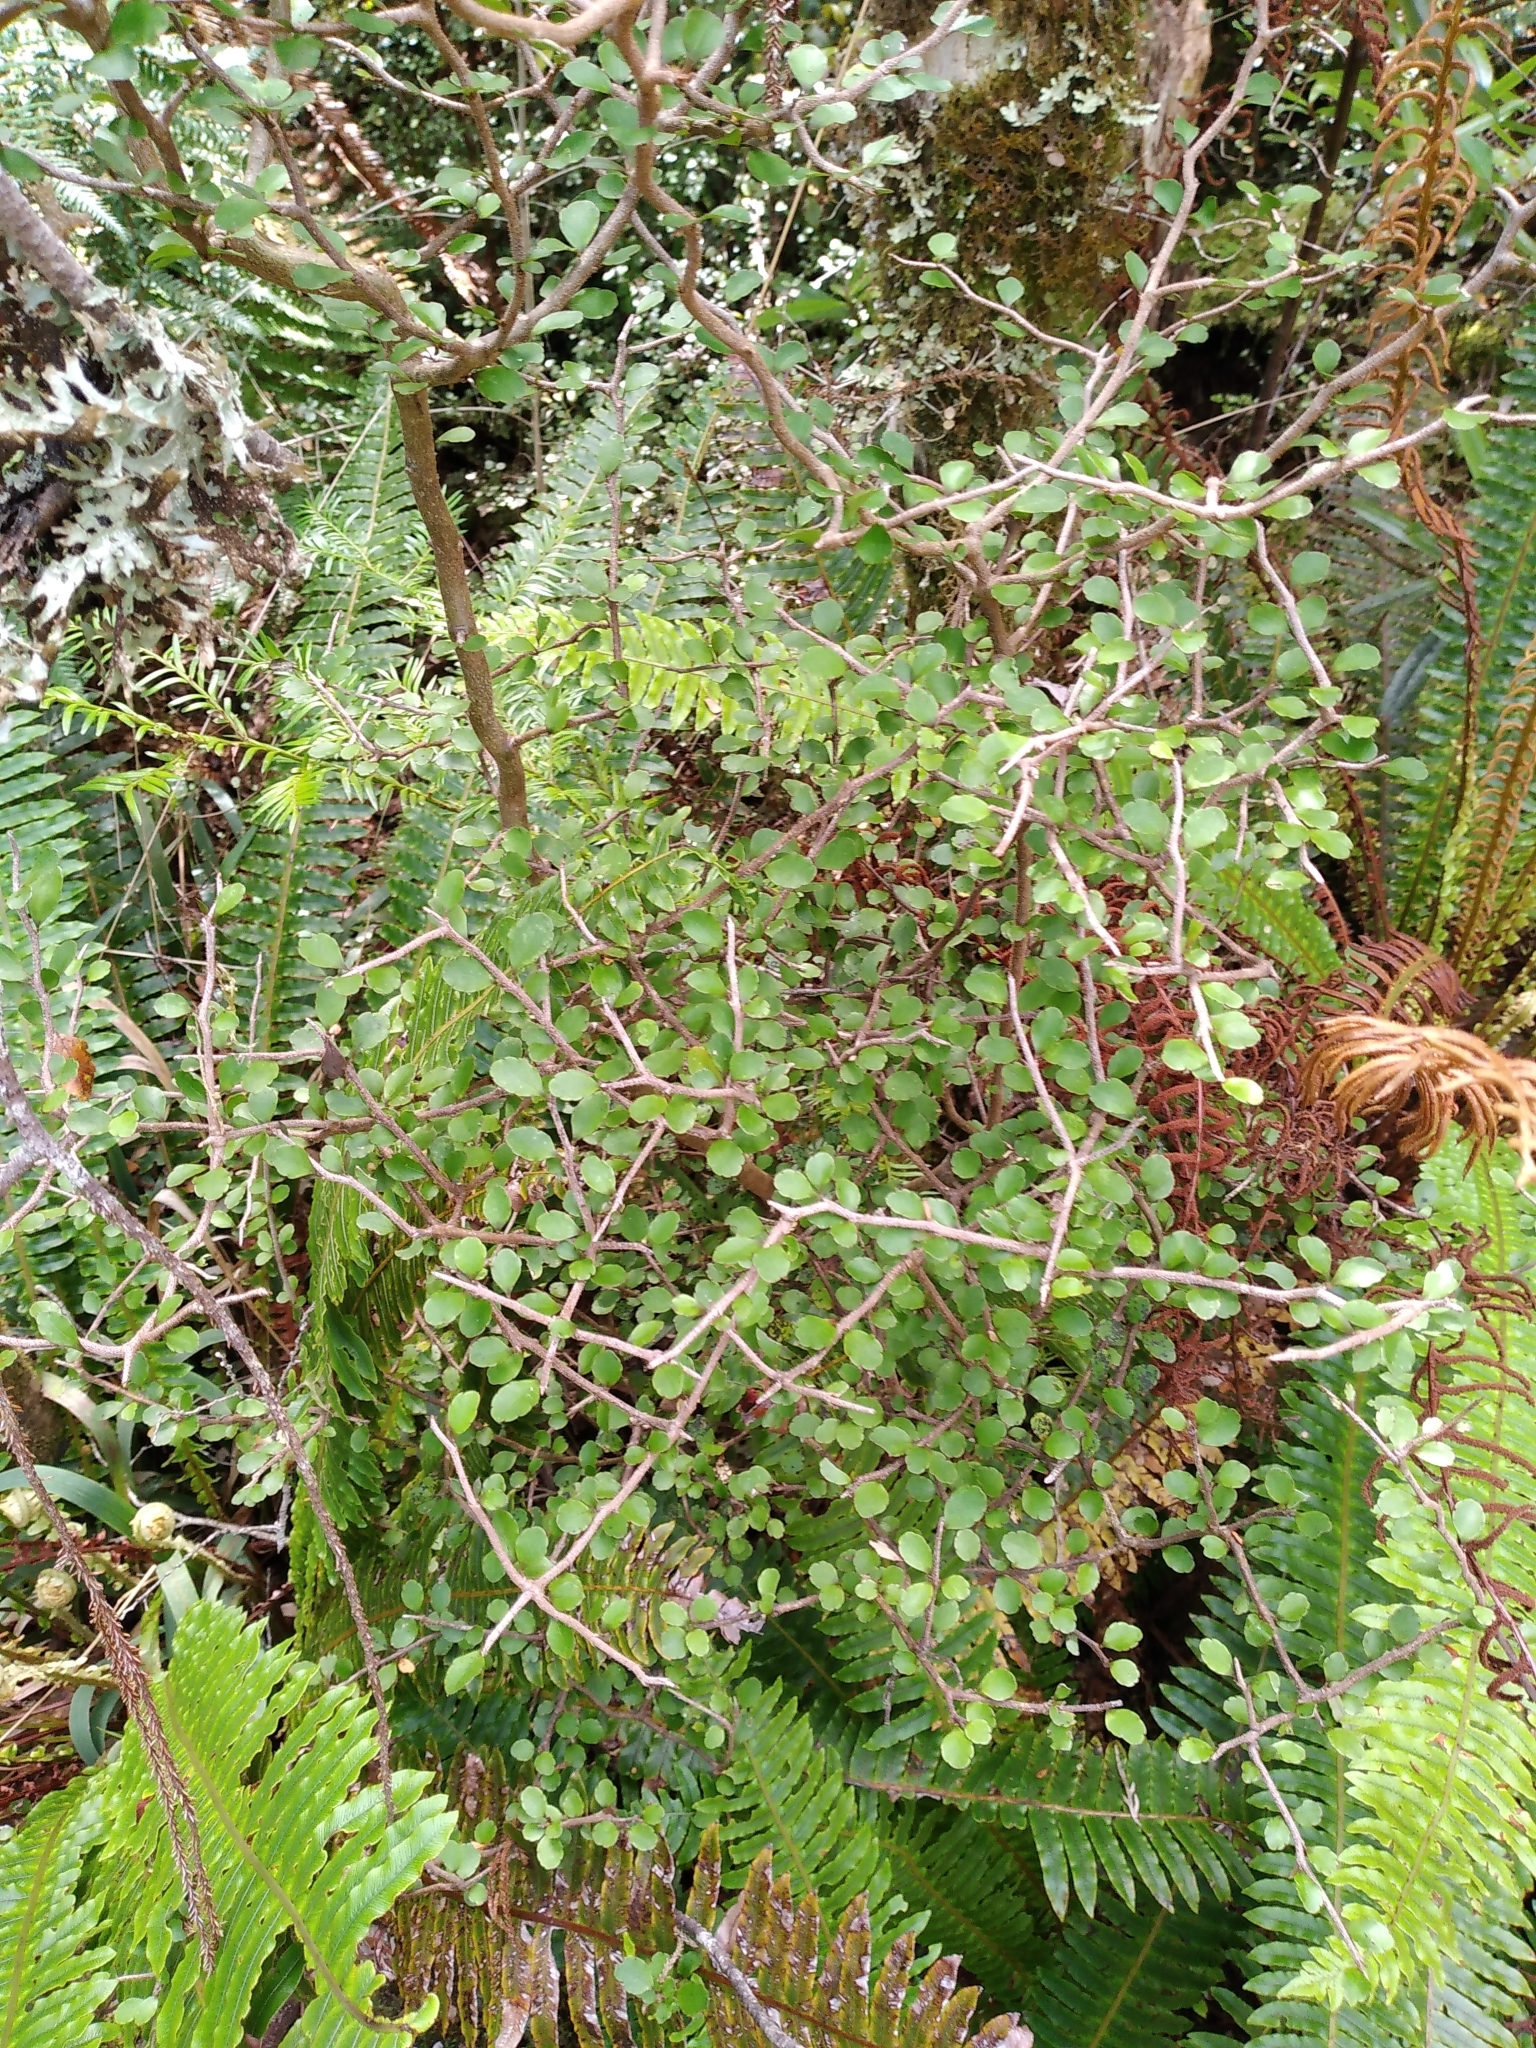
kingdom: Plantae
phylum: Tracheophyta
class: Magnoliopsida
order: Apiales
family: Araliaceae
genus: Raukaua
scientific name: Raukaua anomalus
